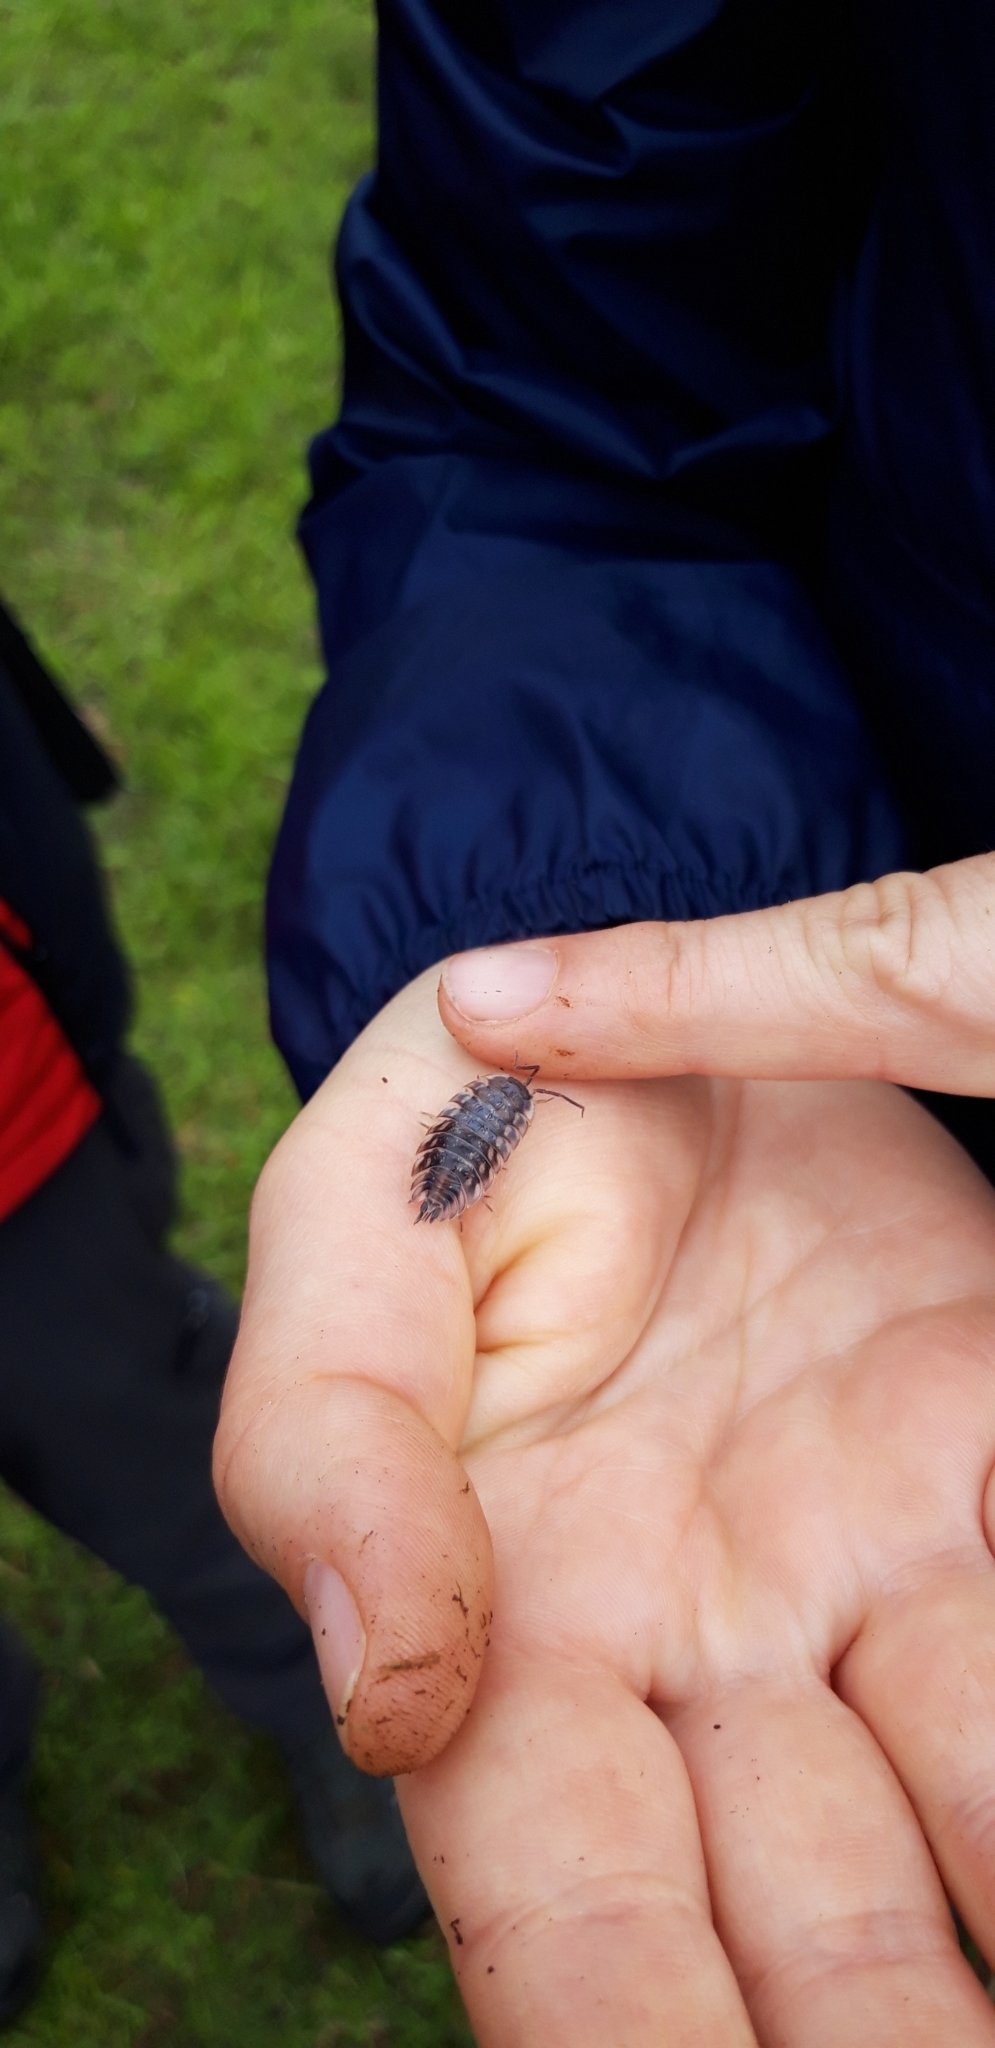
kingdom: Animalia
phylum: Arthropoda
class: Malacostraca
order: Isopoda
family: Oniscidae
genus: Oniscus
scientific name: Oniscus asellus
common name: Common shiny woodlouse
